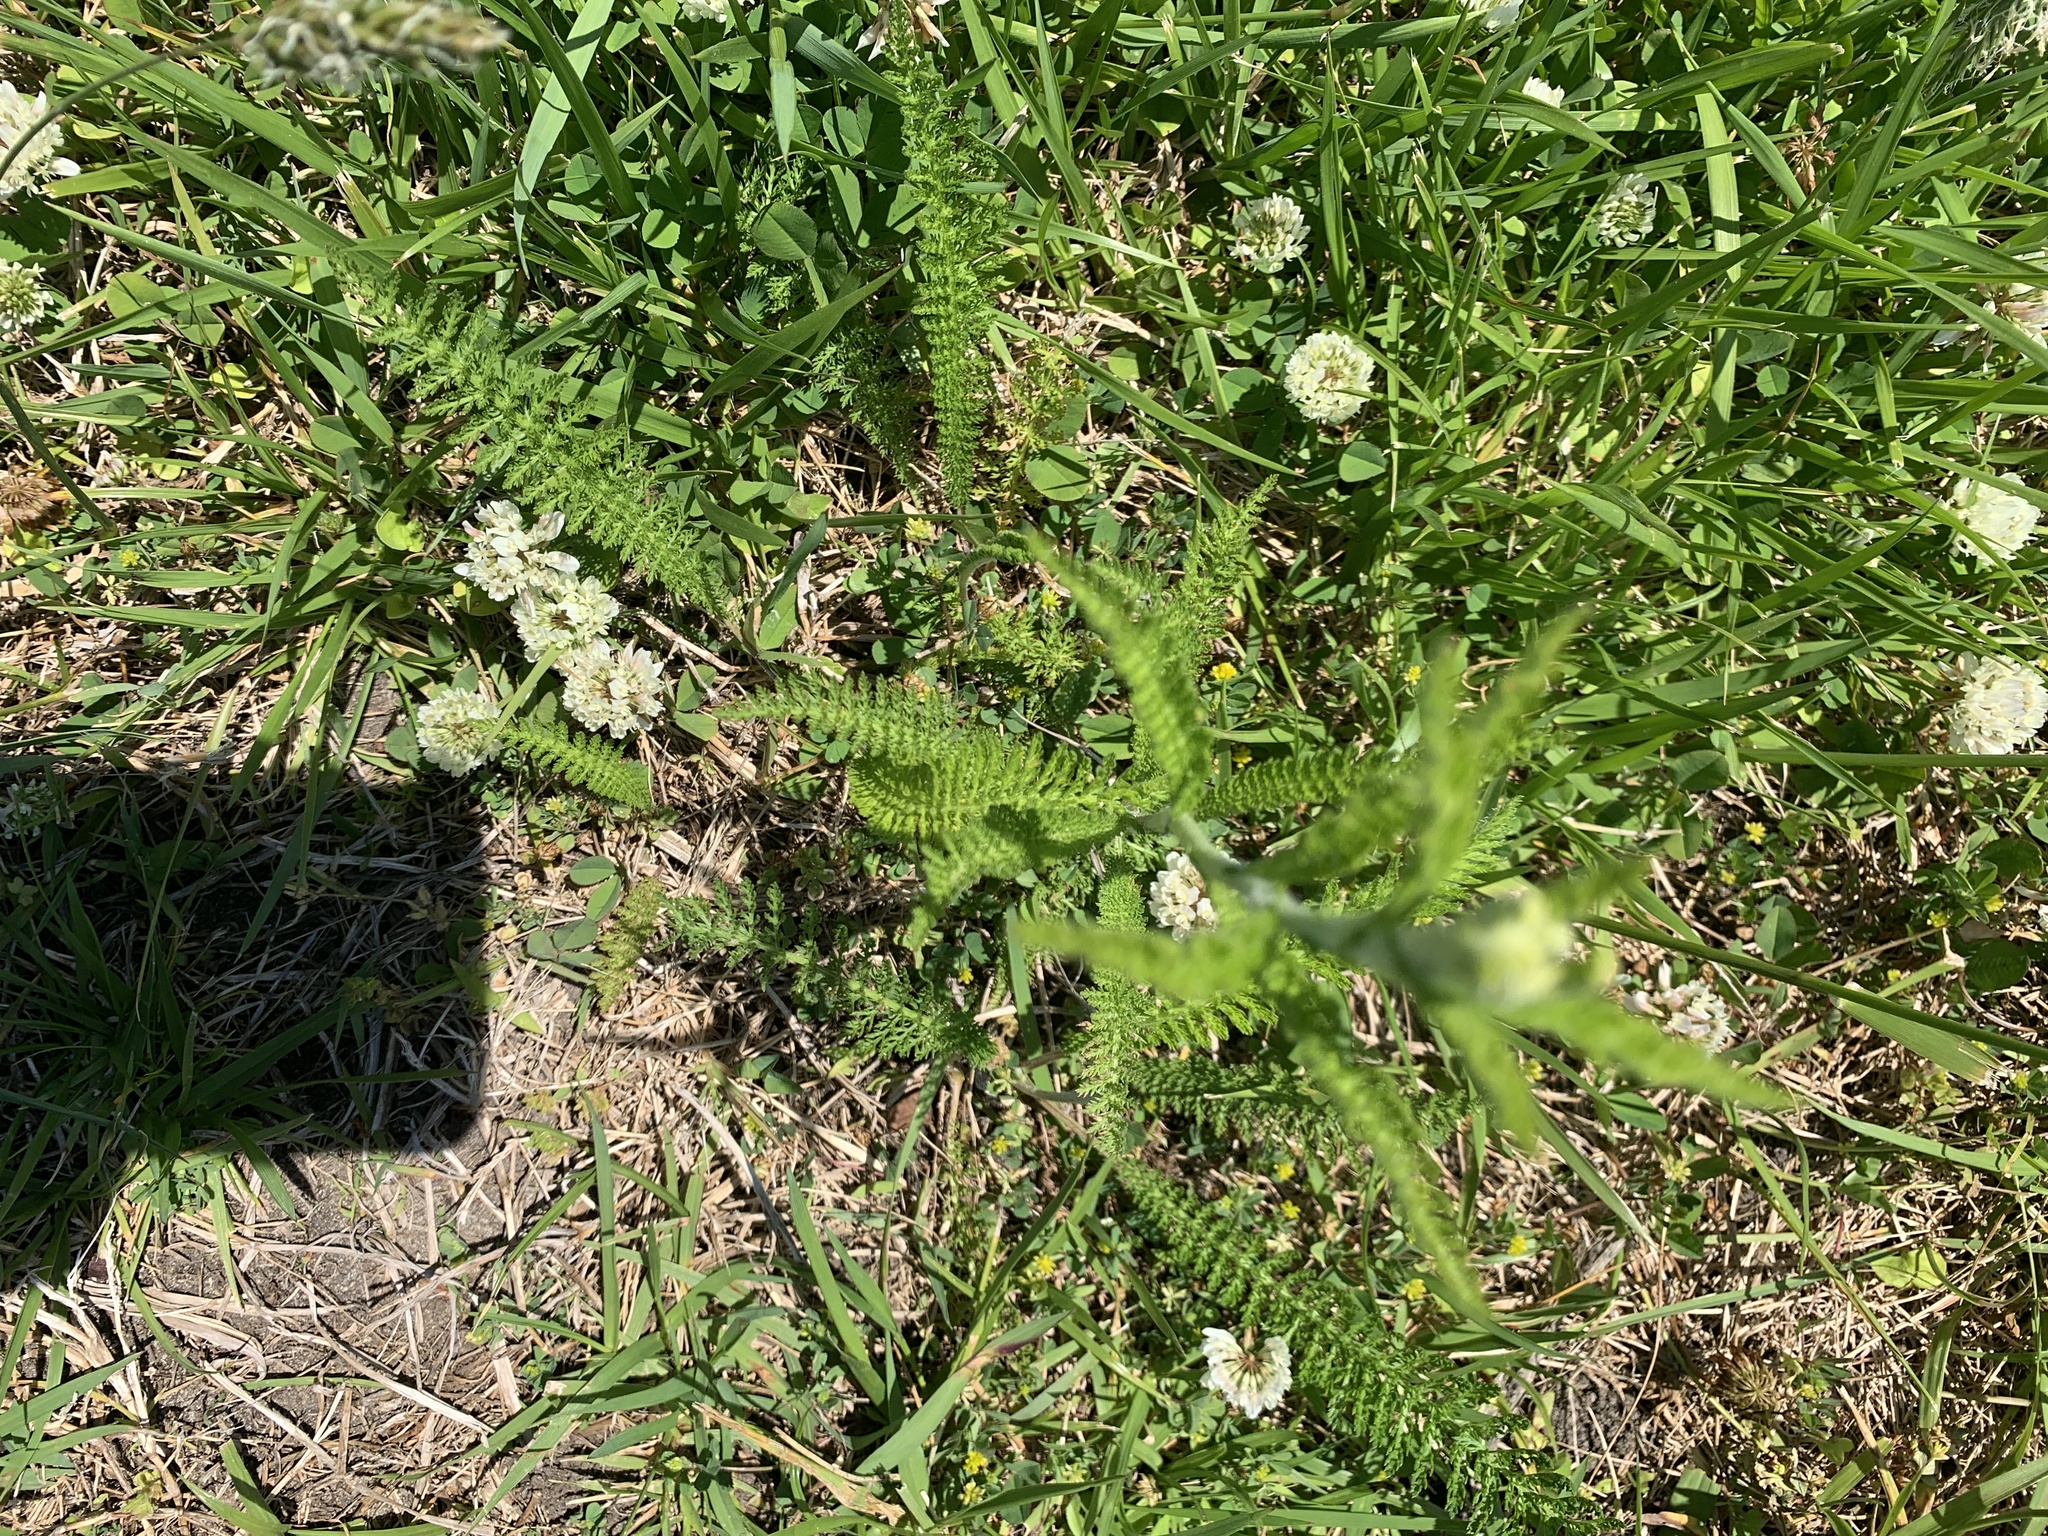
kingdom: Plantae
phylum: Tracheophyta
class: Magnoliopsida
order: Asterales
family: Asteraceae
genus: Achillea
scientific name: Achillea millefolium
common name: Yarrow
